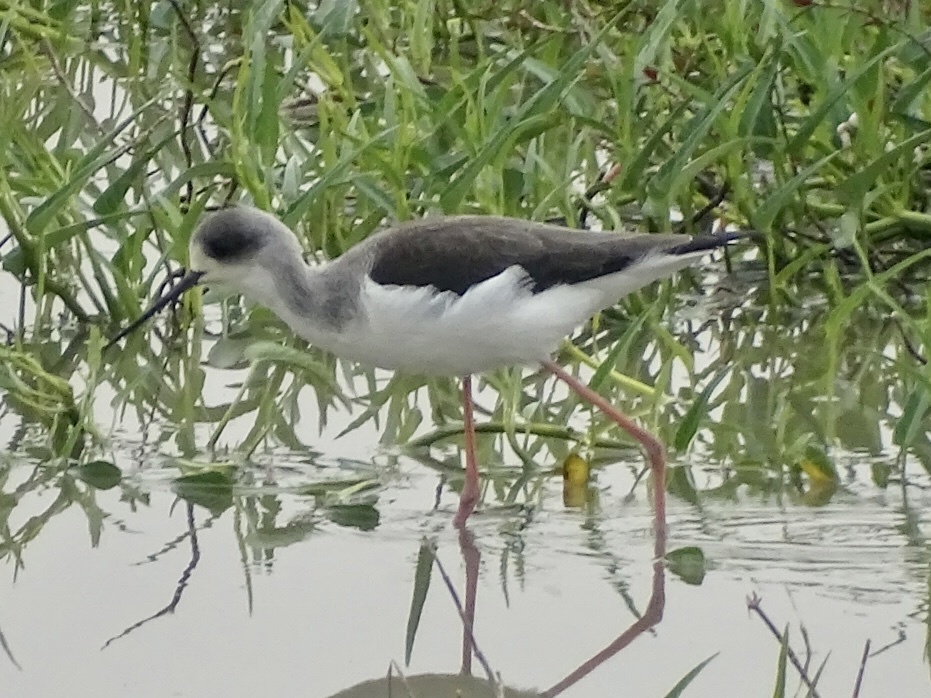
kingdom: Animalia
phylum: Chordata
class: Aves
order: Charadriiformes
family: Recurvirostridae
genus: Himantopus
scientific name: Himantopus himantopus
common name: Black-winged stilt
